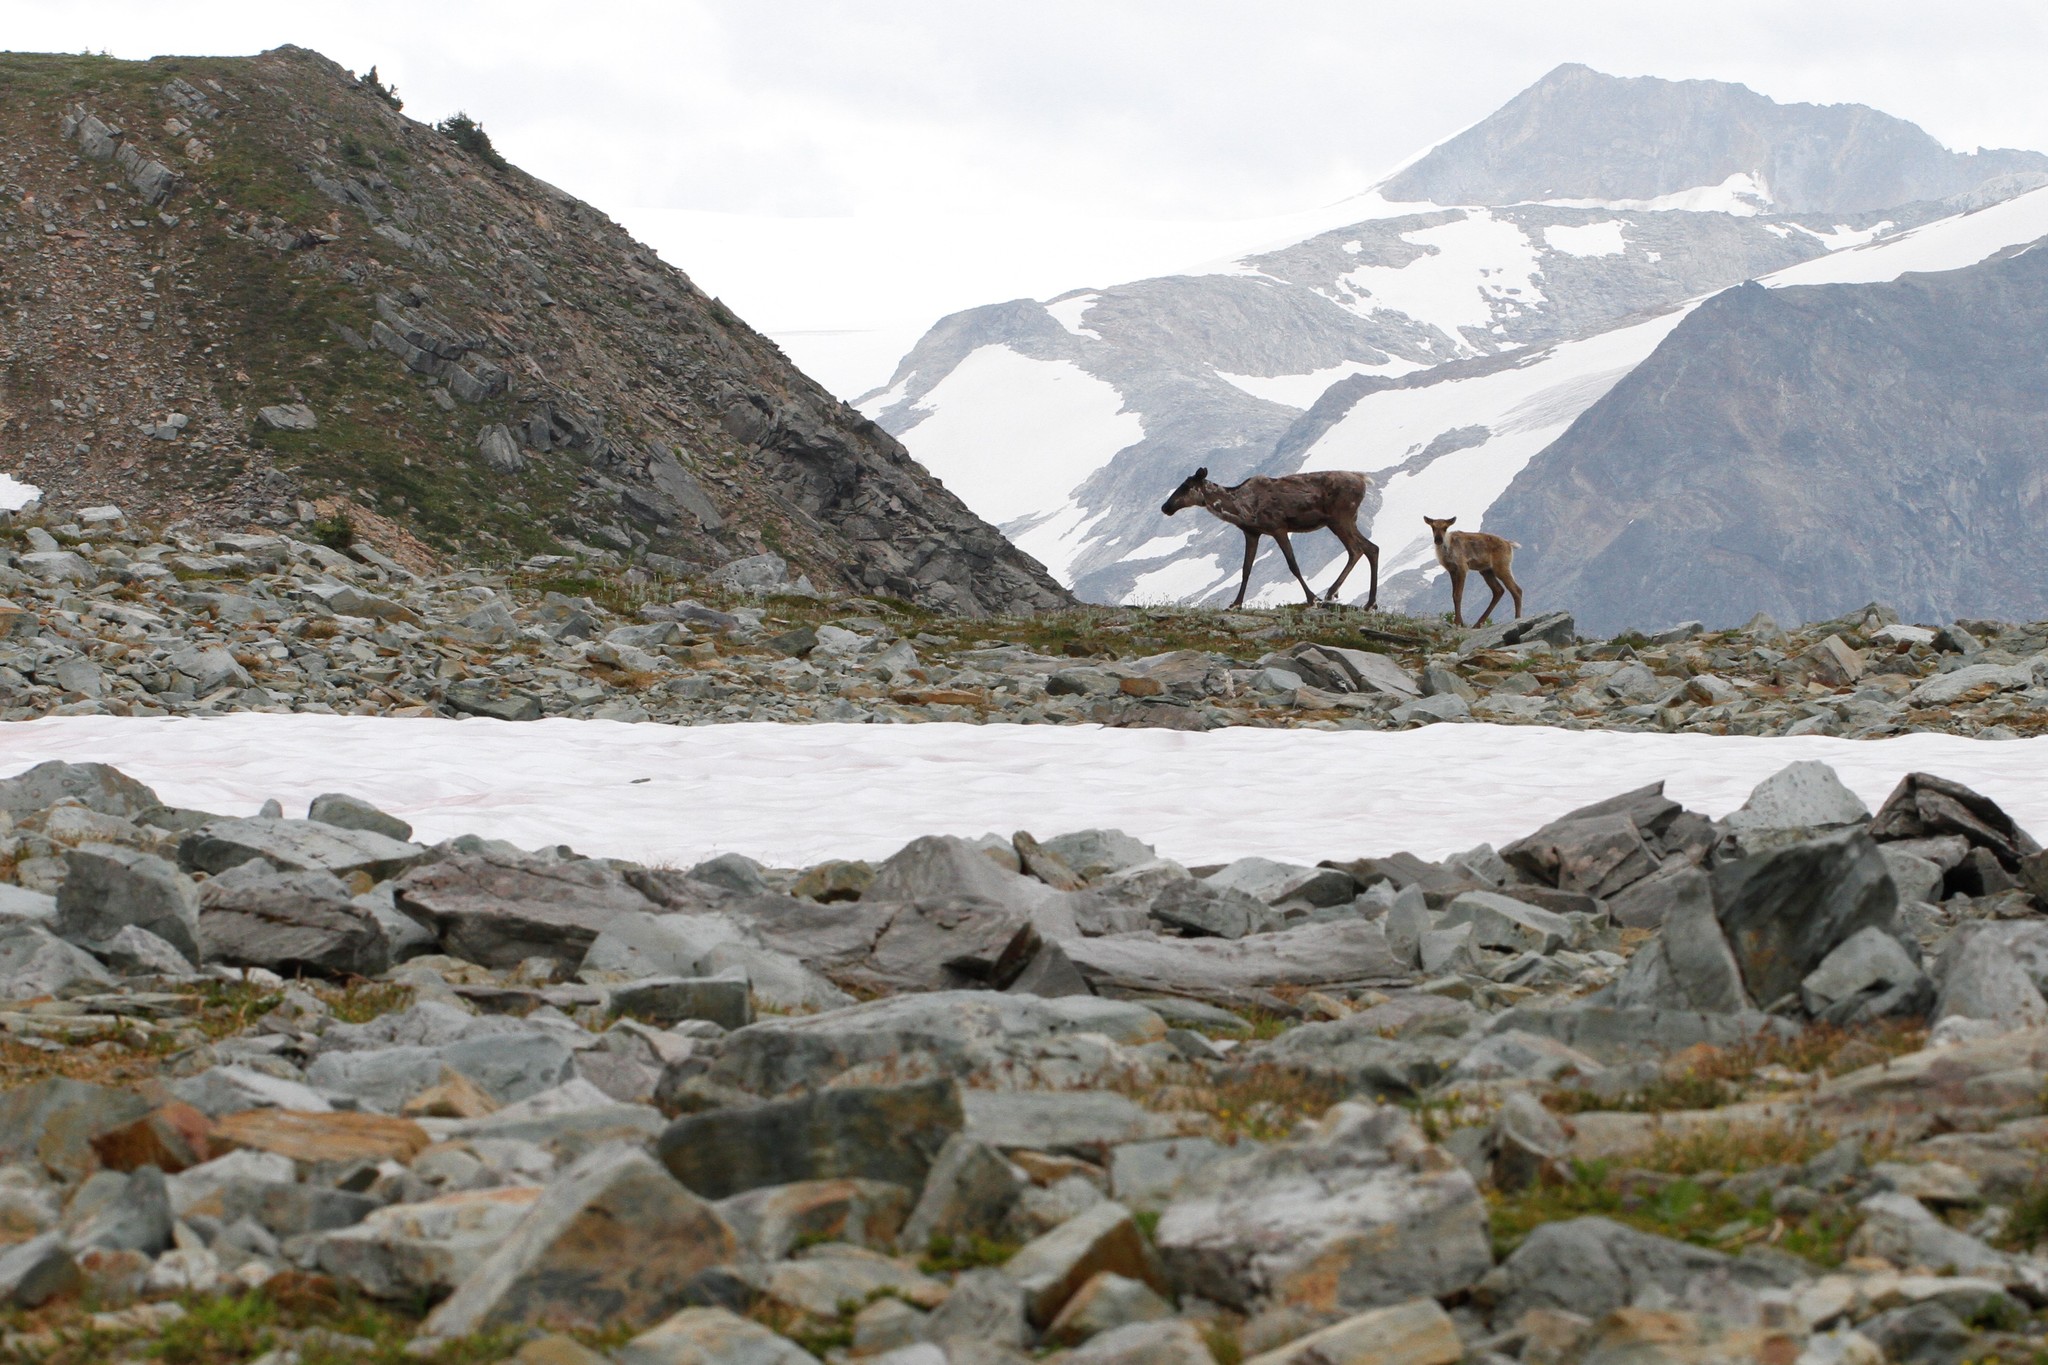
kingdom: Animalia
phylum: Chordata
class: Mammalia
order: Artiodactyla
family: Cervidae
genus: Rangifer
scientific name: Rangifer tarandus
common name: Reindeer
